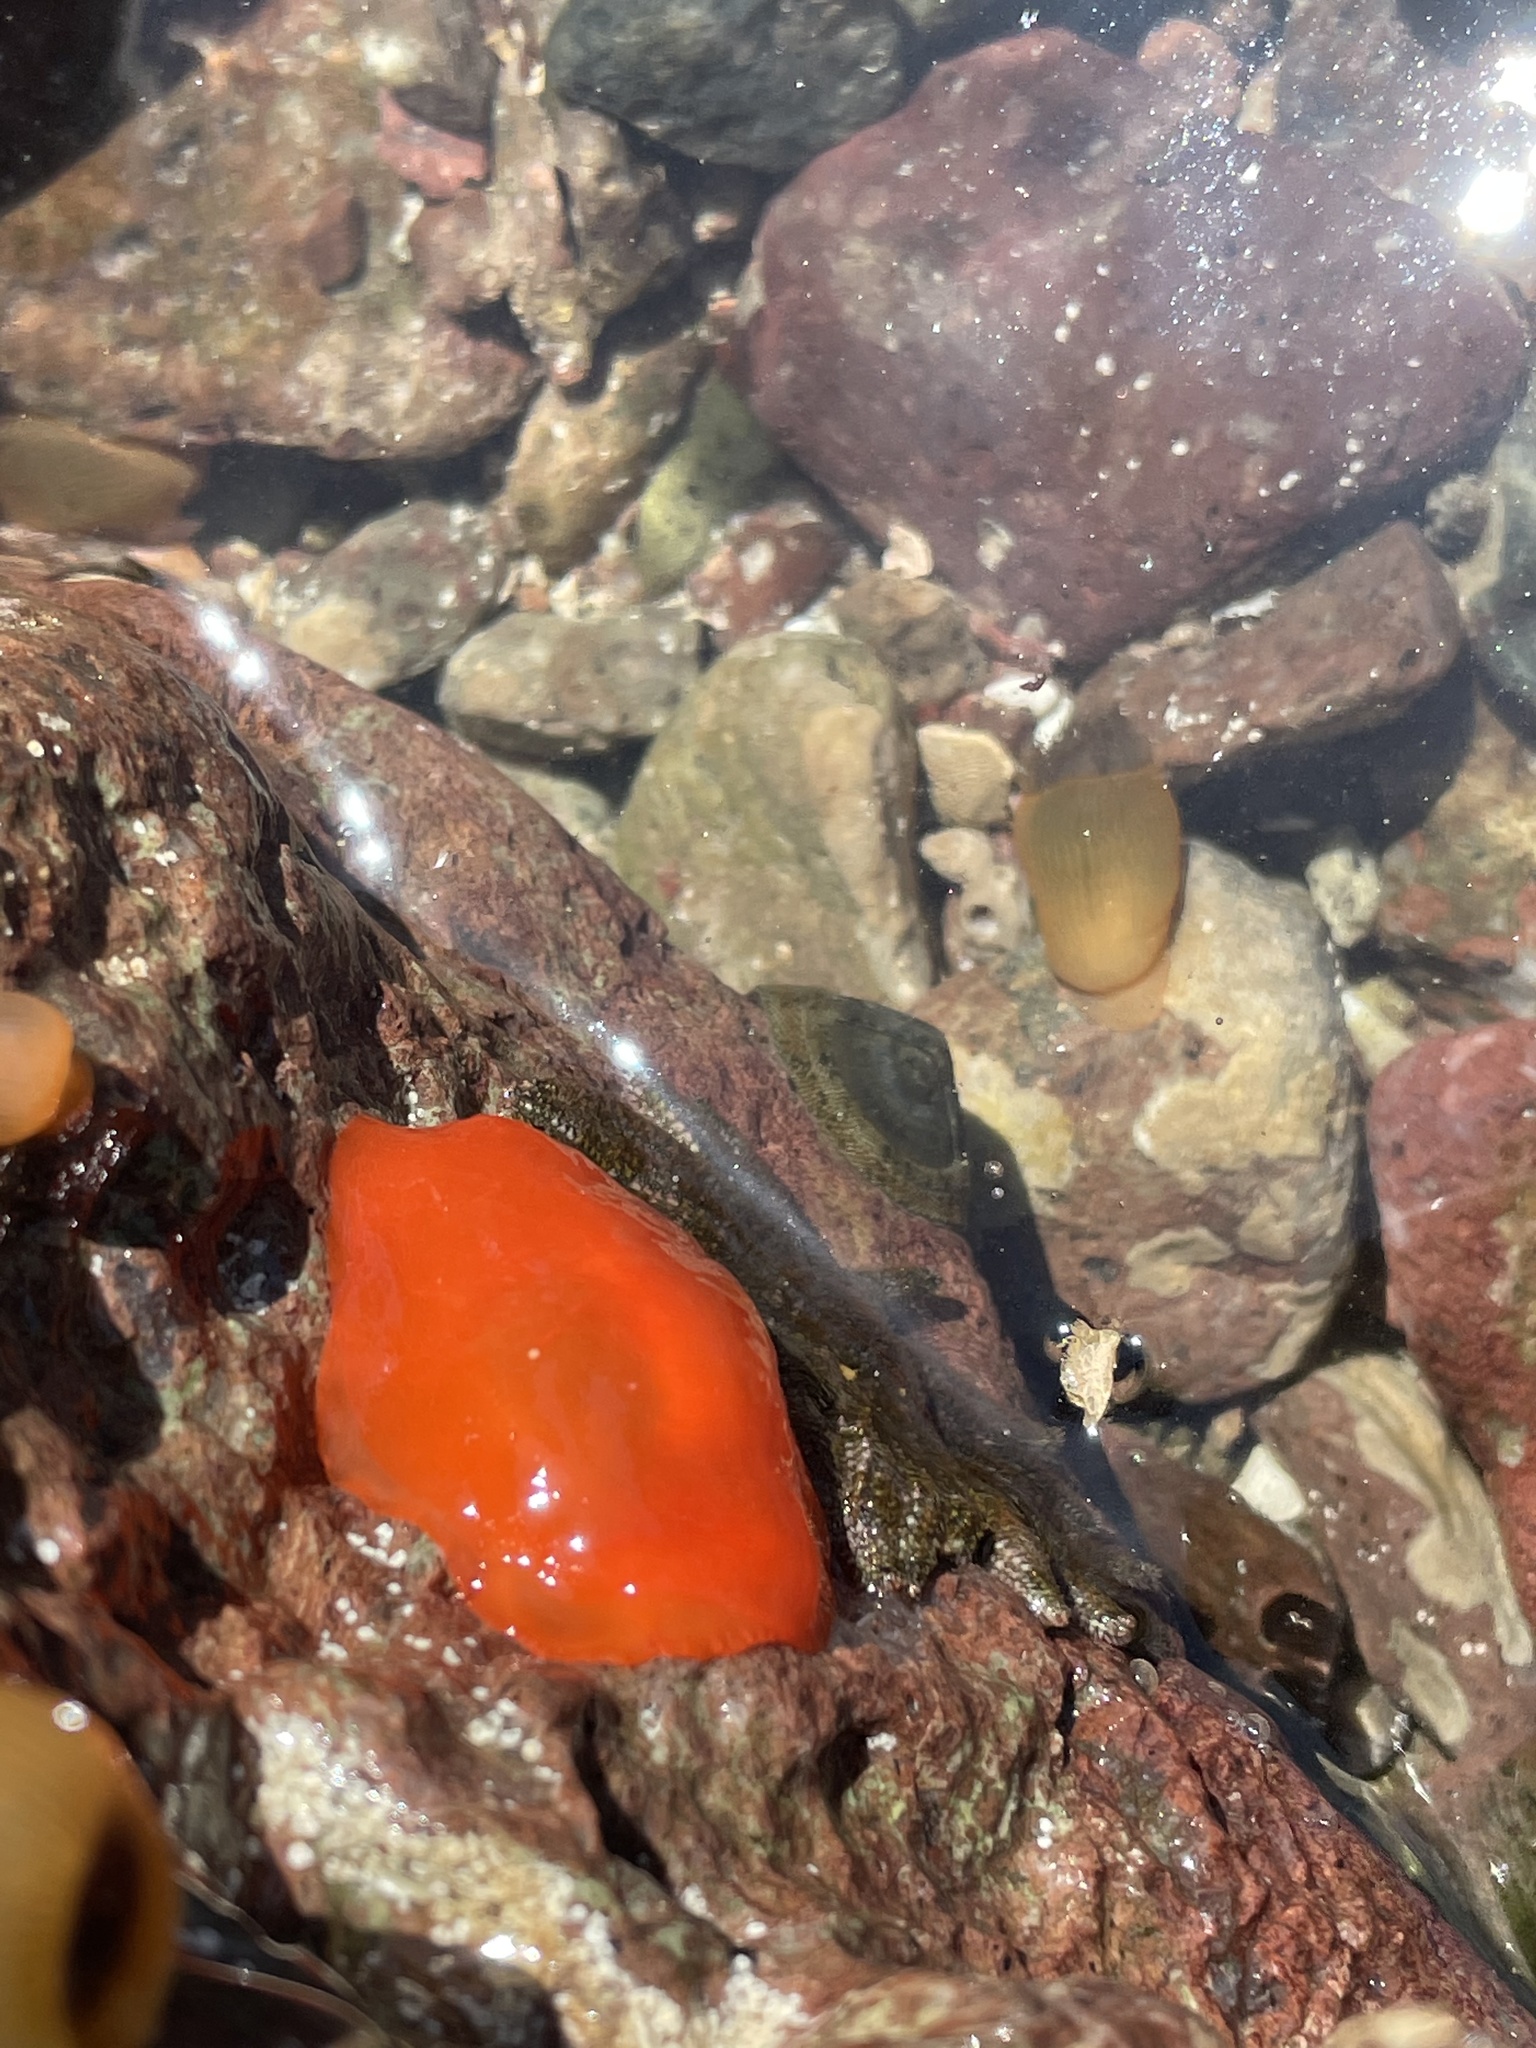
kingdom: Animalia
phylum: Mollusca
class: Gastropoda
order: Pleurobranchida
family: Pleurobranchidae
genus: Berthellina
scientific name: Berthellina ilisima
